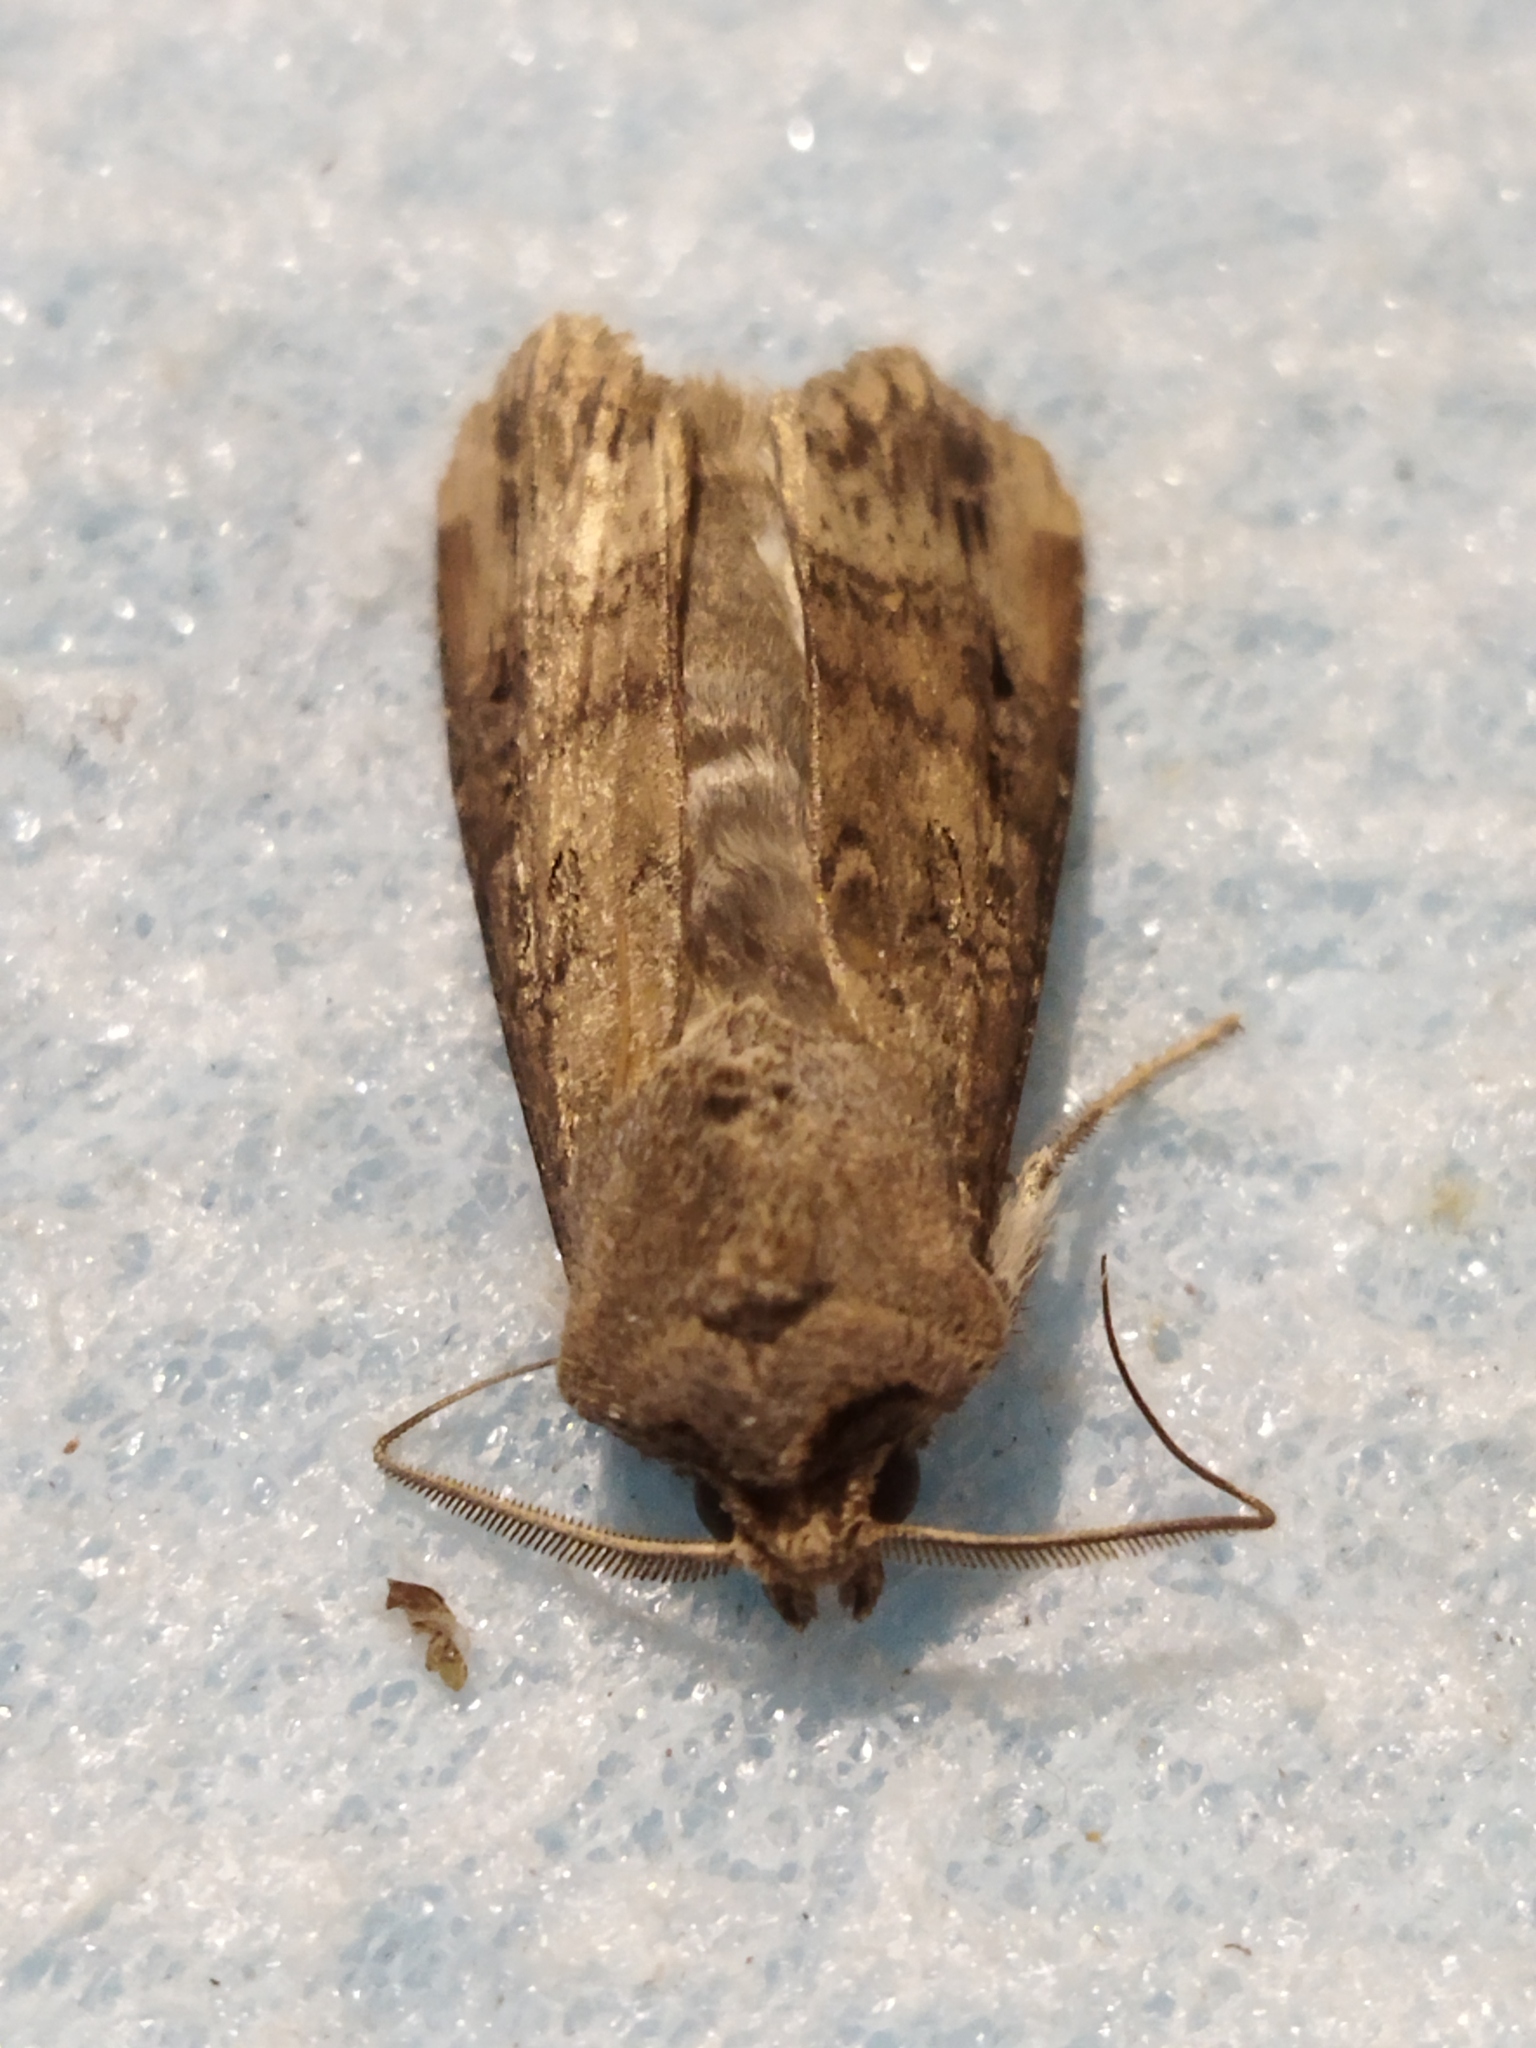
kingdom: Animalia
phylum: Arthropoda
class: Insecta
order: Lepidoptera
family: Noctuidae
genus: Agrotis
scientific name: Agrotis ipsilon
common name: Dark sword-grass
